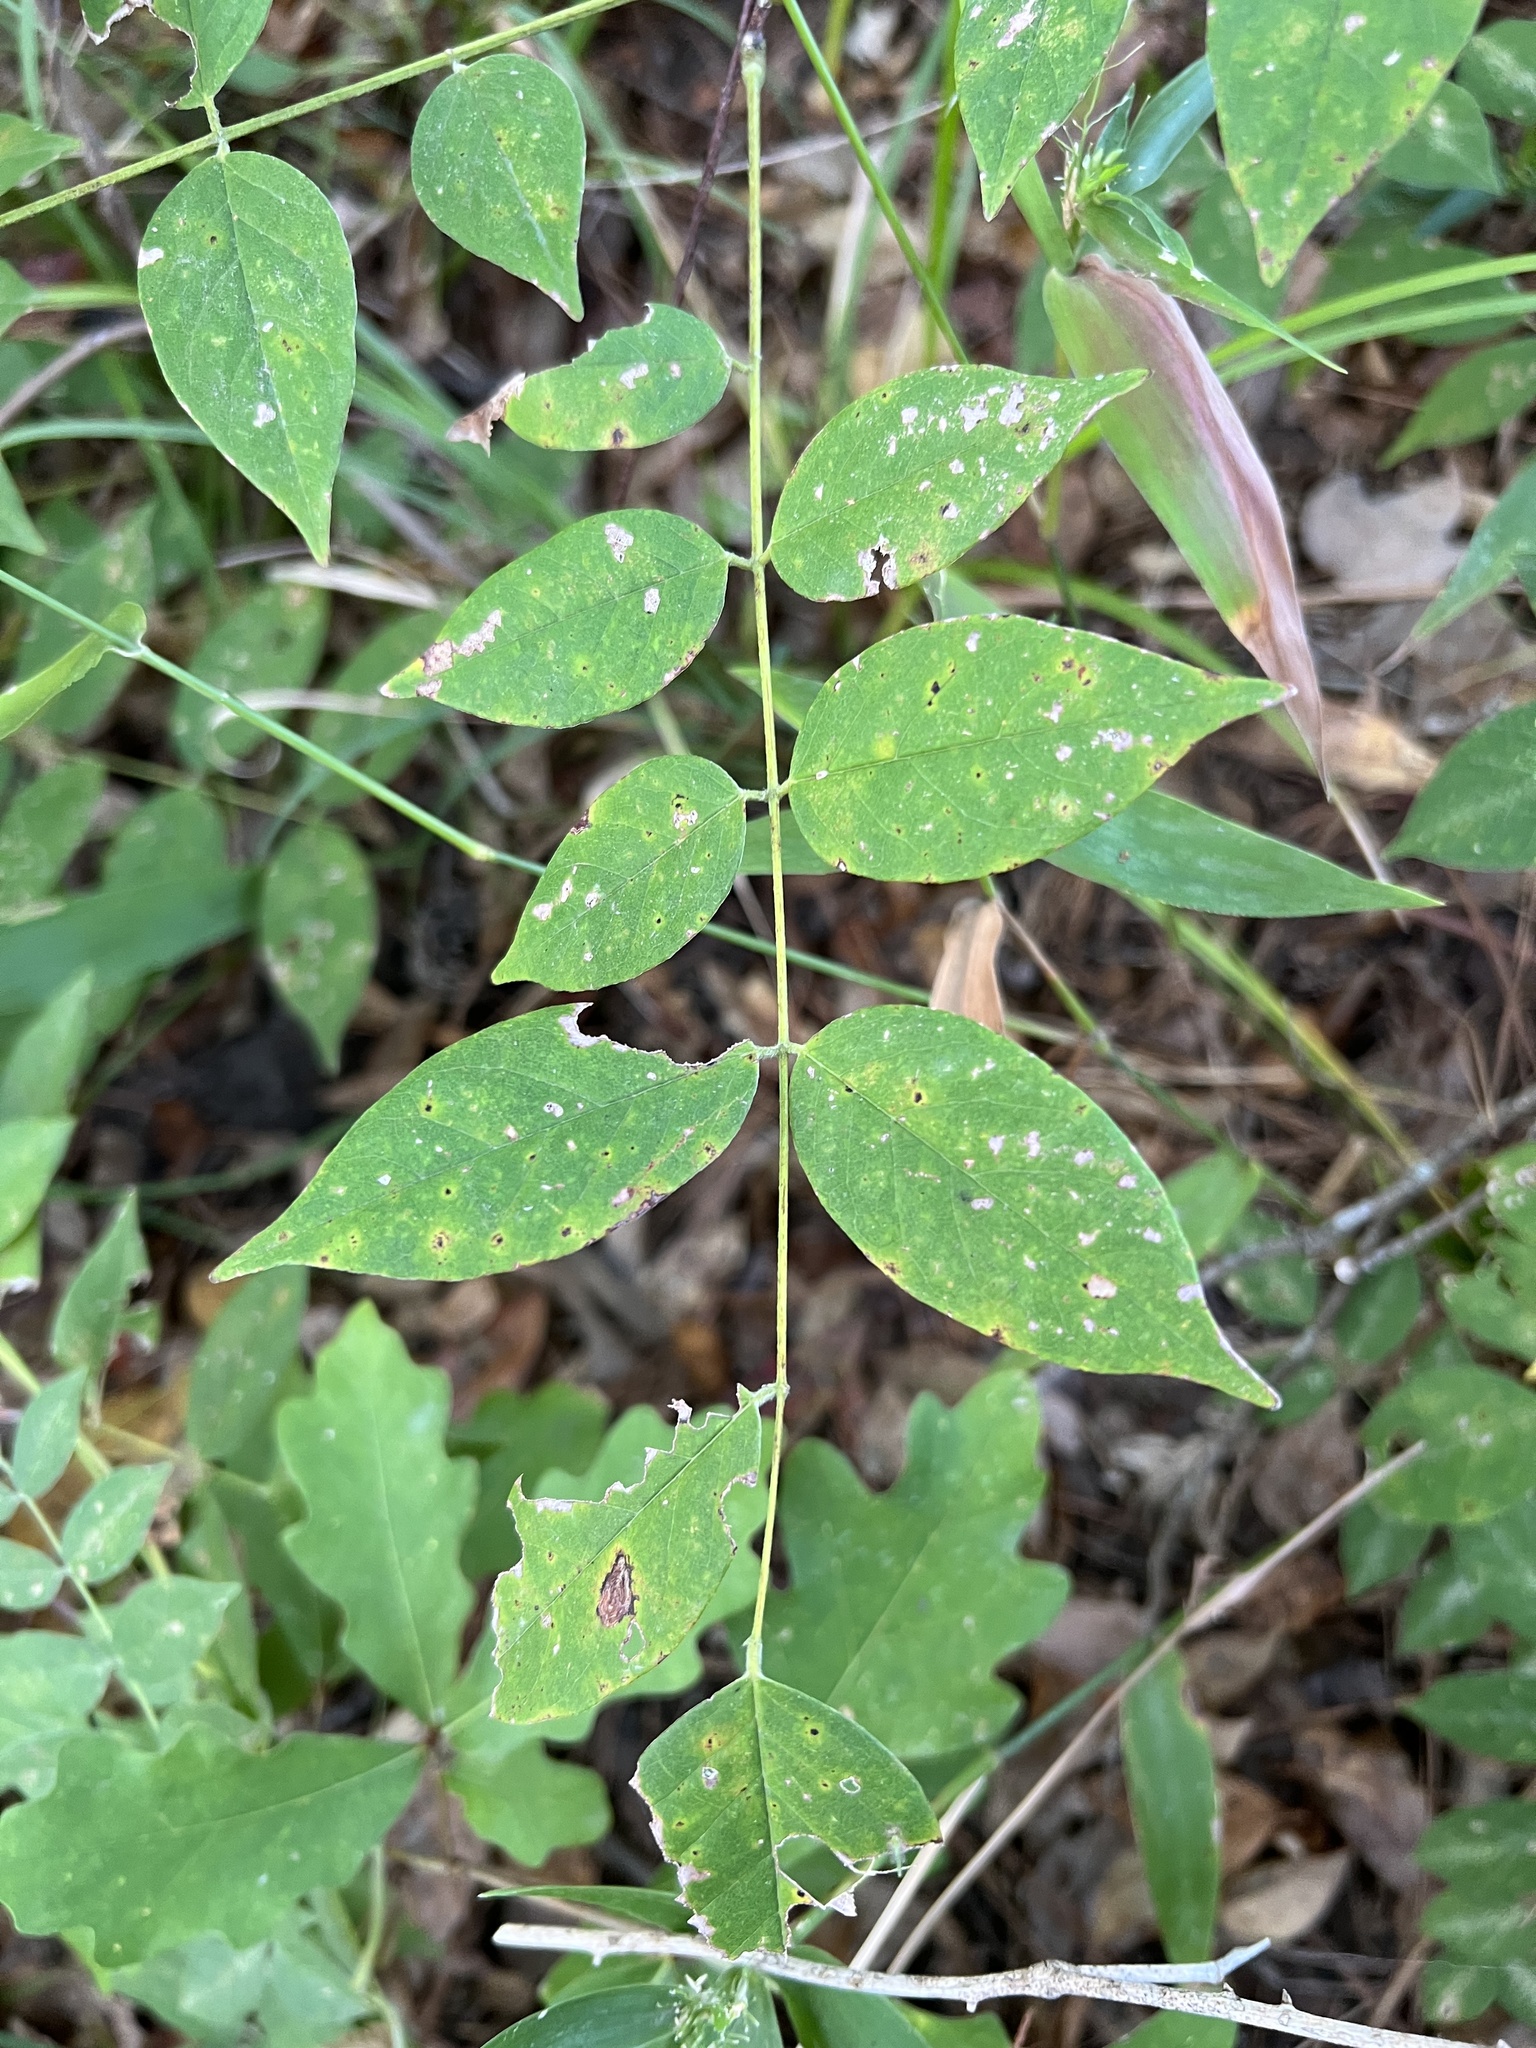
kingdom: Plantae
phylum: Tracheophyta
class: Magnoliopsida
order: Fabales
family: Fabaceae
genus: Wisteria
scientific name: Wisteria frutescens
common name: American wisteria
